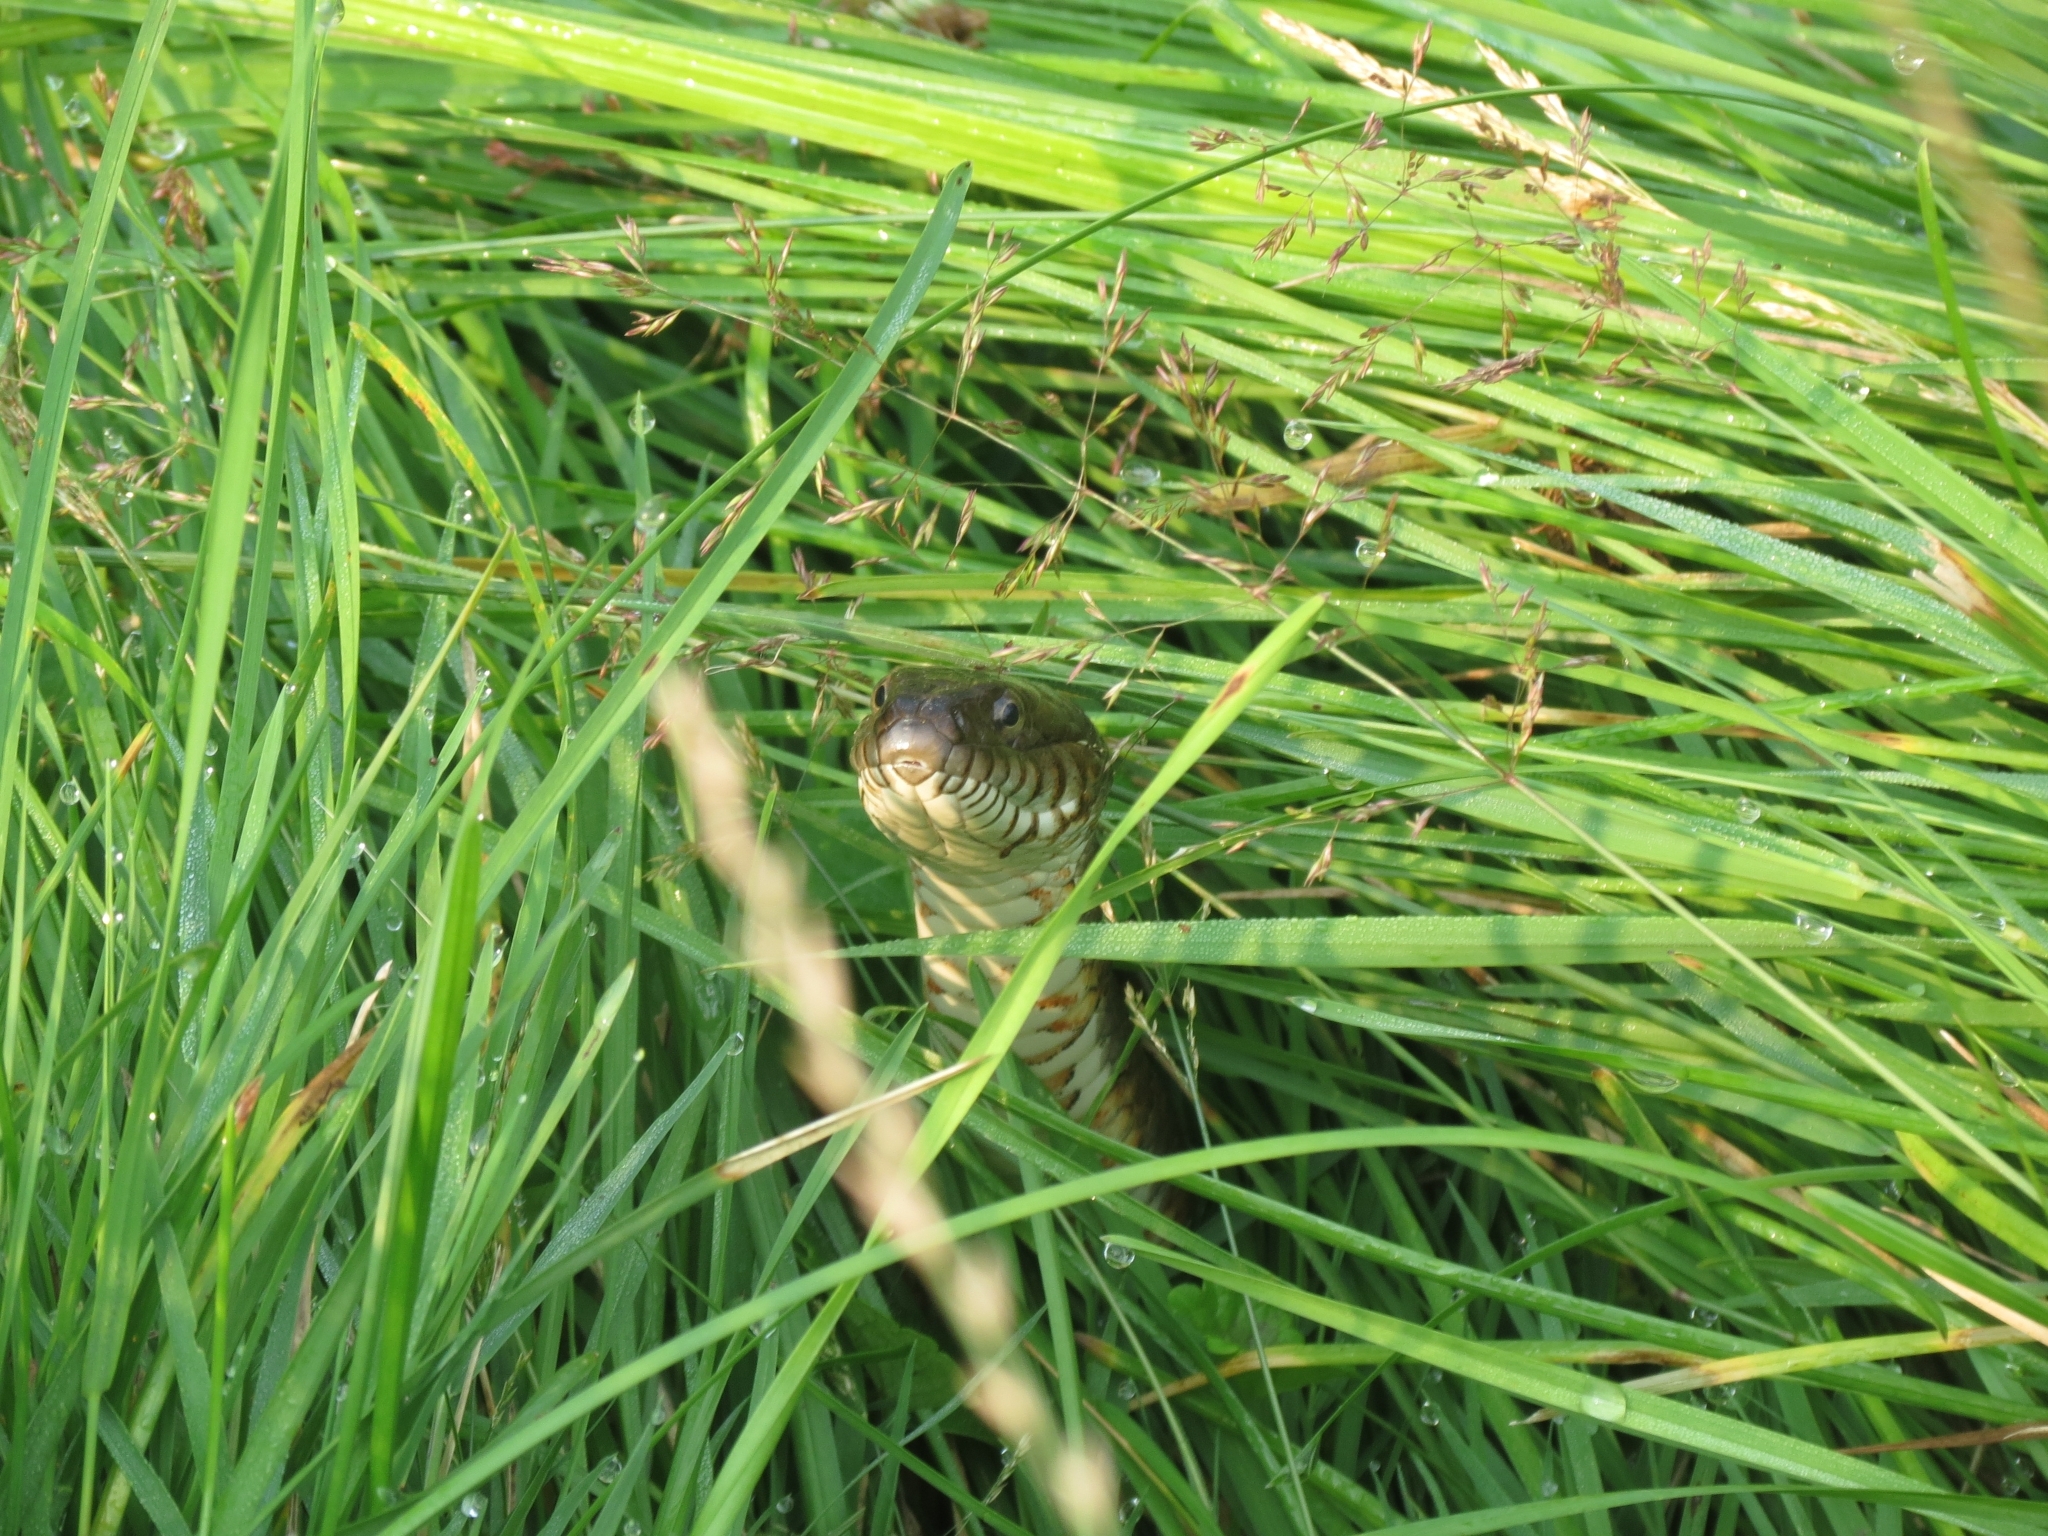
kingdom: Animalia
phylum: Chordata
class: Squamata
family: Colubridae
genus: Nerodia
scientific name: Nerodia sipedon
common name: Northern water snake
